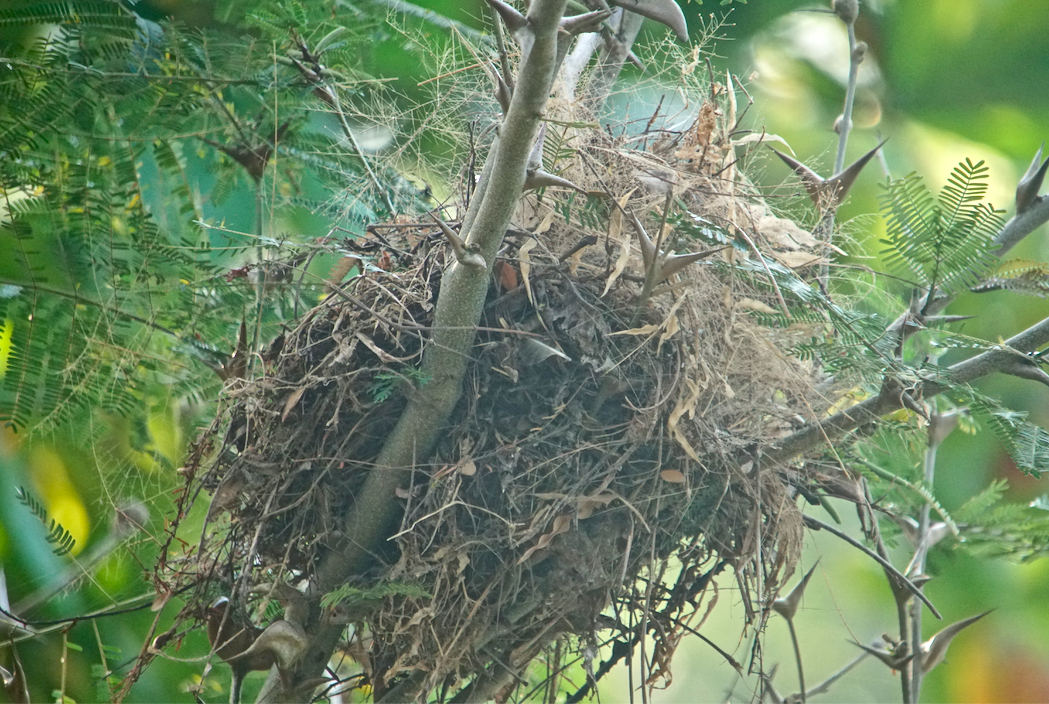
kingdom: Animalia
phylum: Chordata
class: Aves
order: Passeriformes
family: Troglodytidae
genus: Campylorhynchus
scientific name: Campylorhynchus rufinucha
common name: Rufous-naped wren
